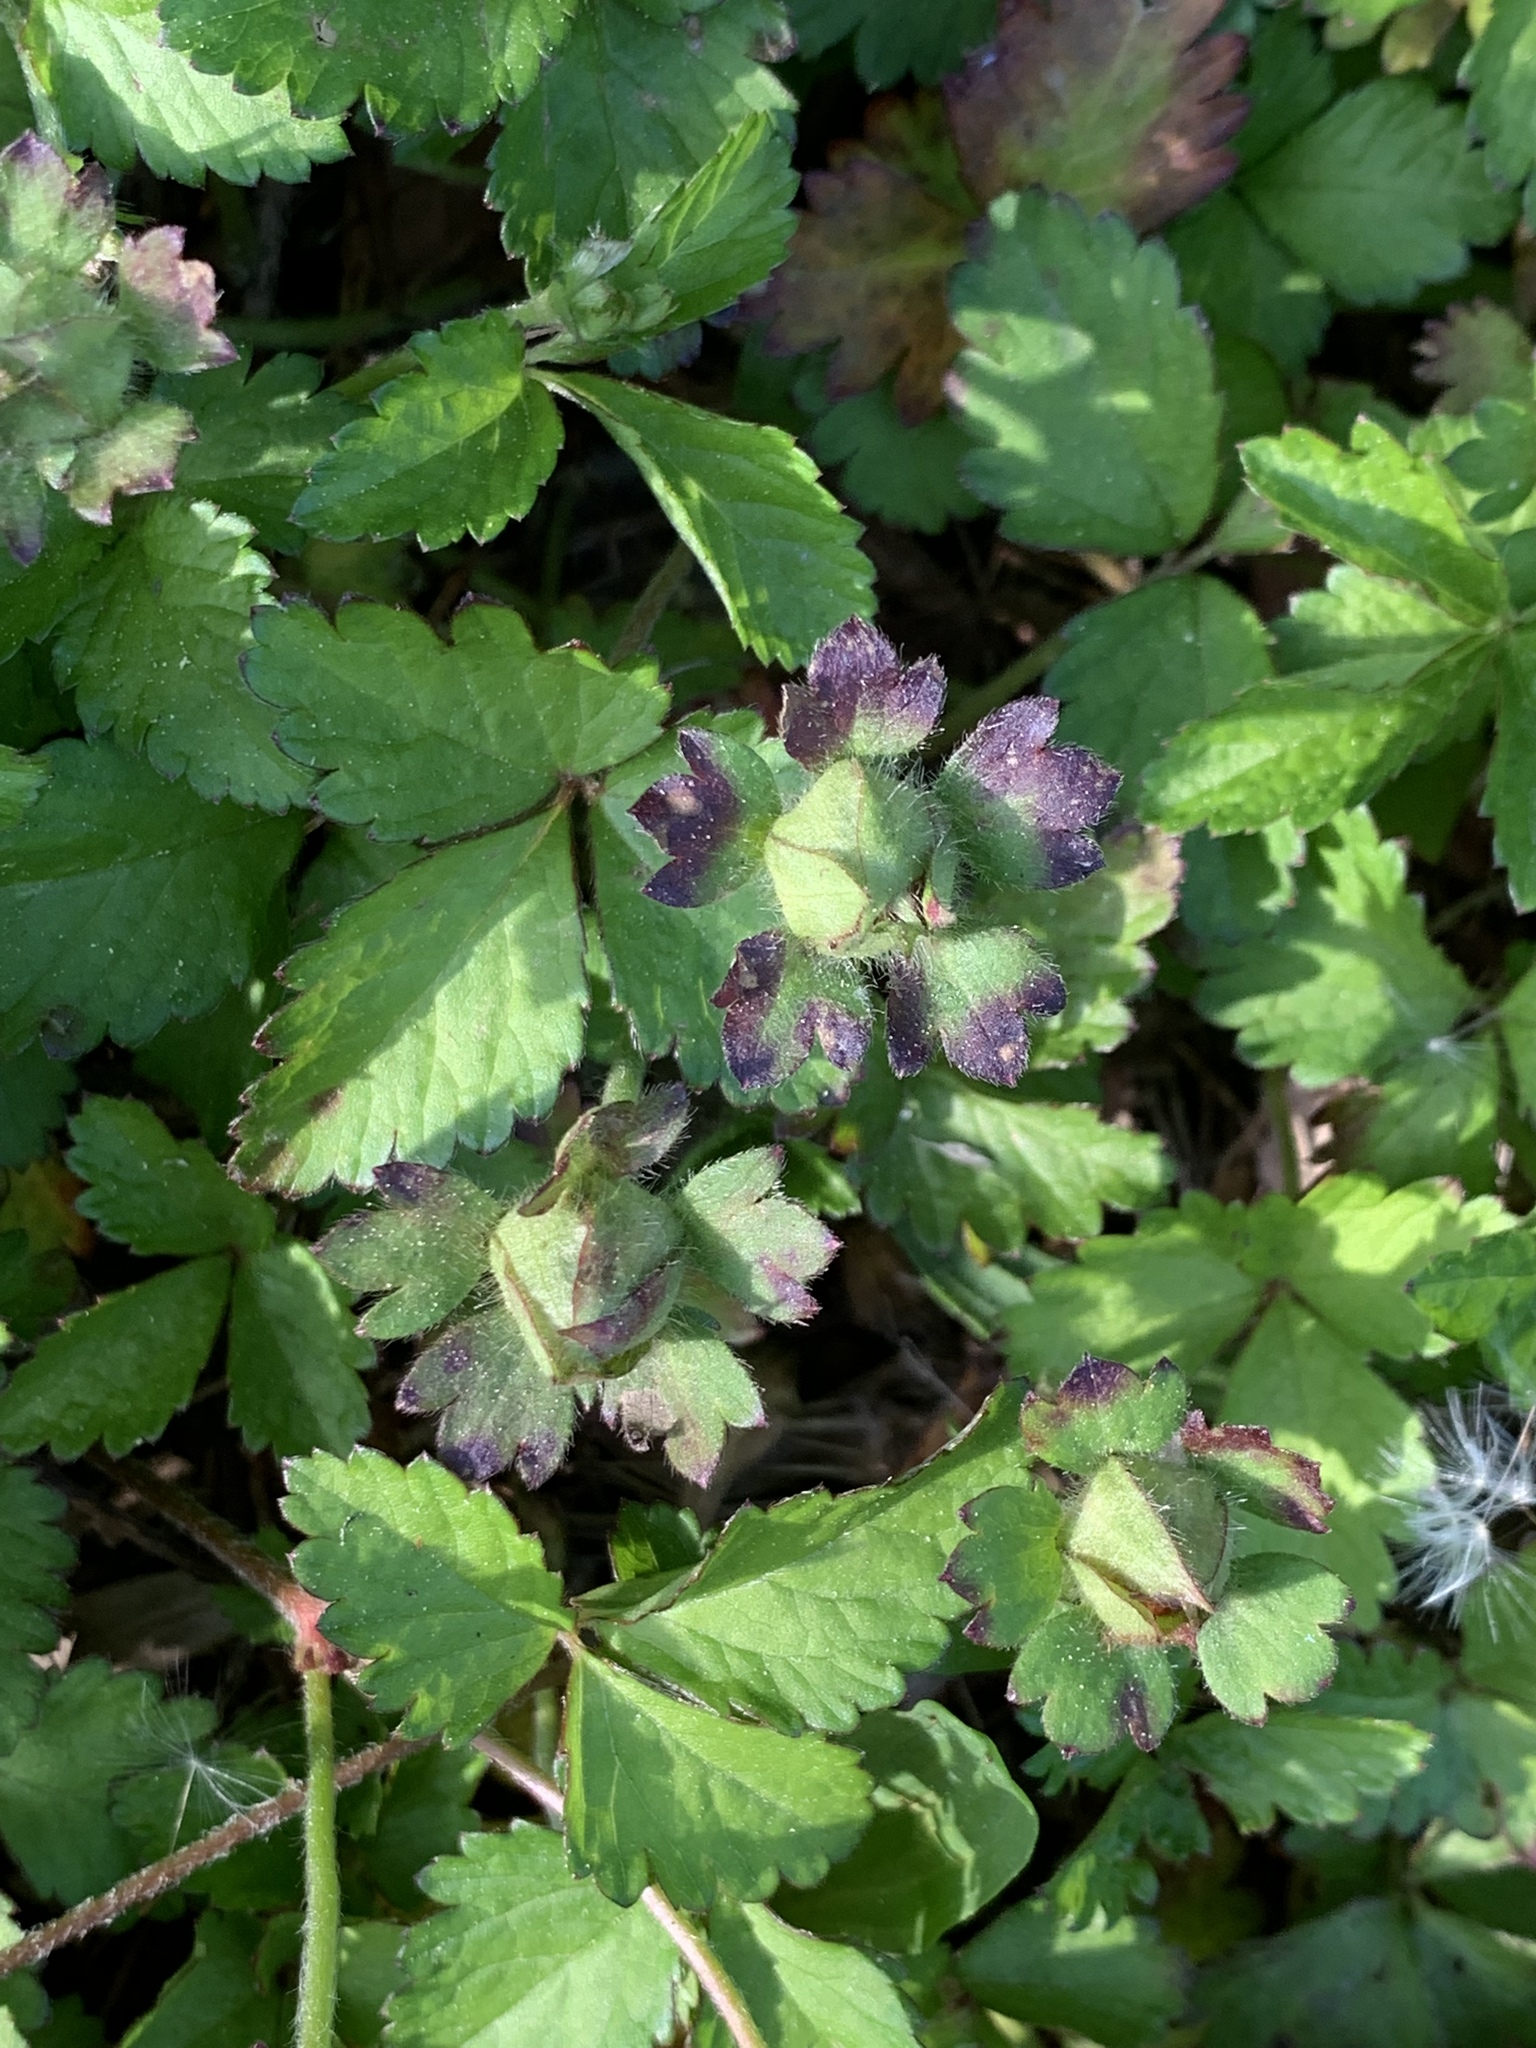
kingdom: Plantae
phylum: Tracheophyta
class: Magnoliopsida
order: Rosales
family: Rosaceae
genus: Potentilla
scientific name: Potentilla indica
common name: Yellow-flowered strawberry
